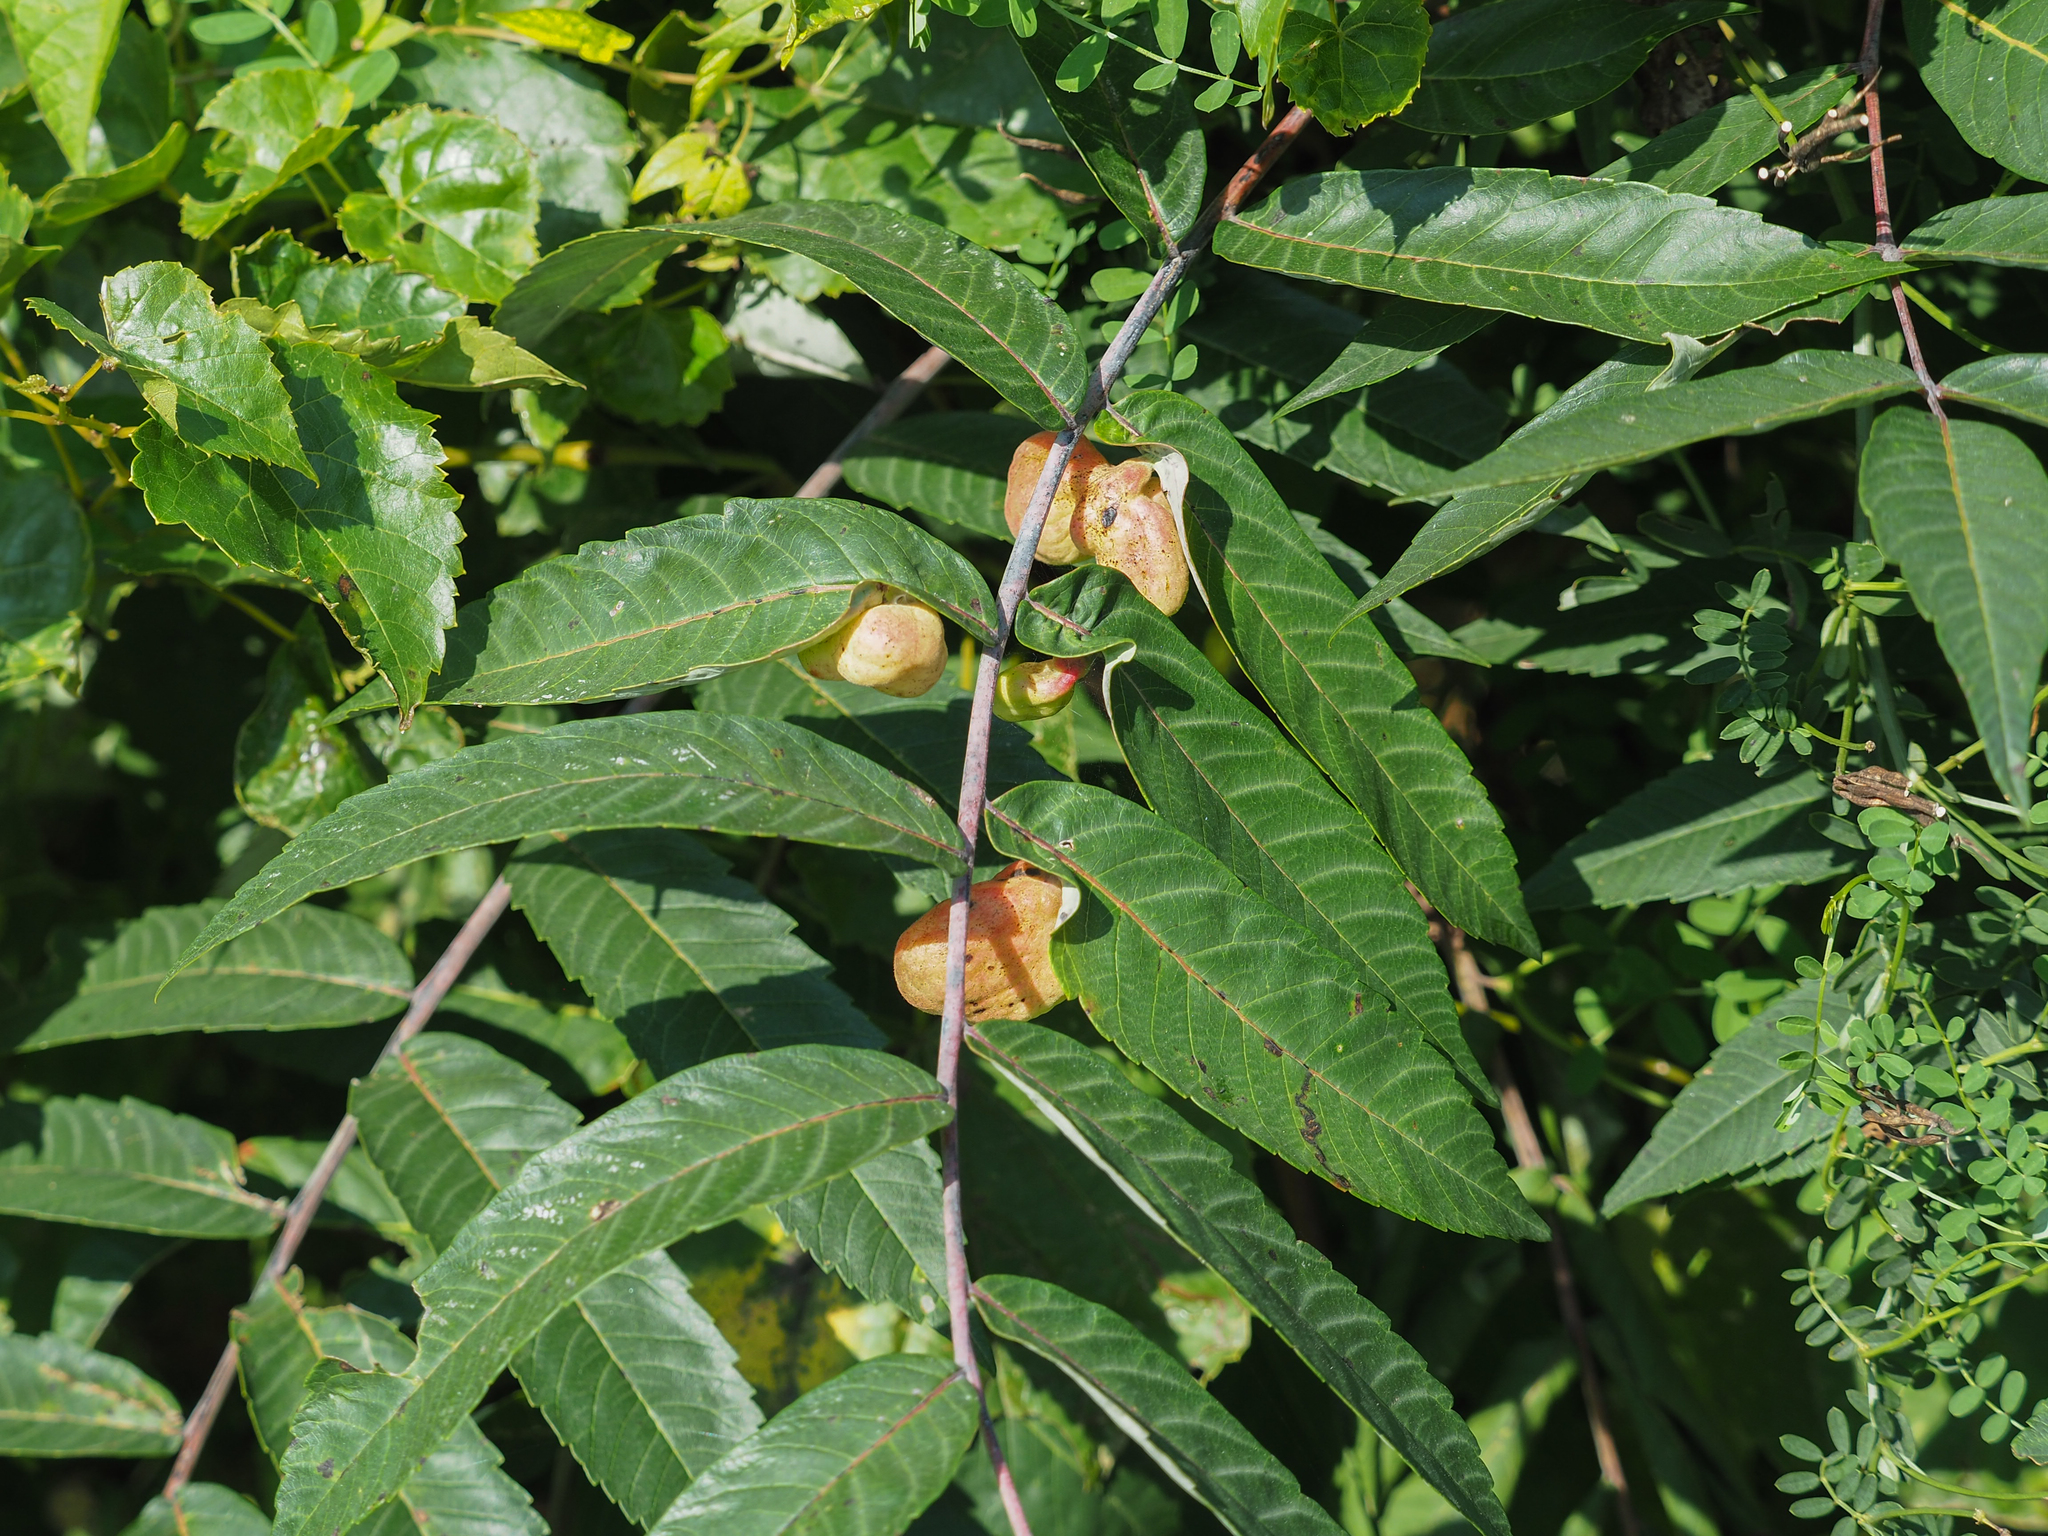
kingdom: Animalia
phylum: Arthropoda
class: Insecta
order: Hemiptera
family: Aphididae
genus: Melaphis
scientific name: Melaphis rhois
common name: Sumac gall aphid
